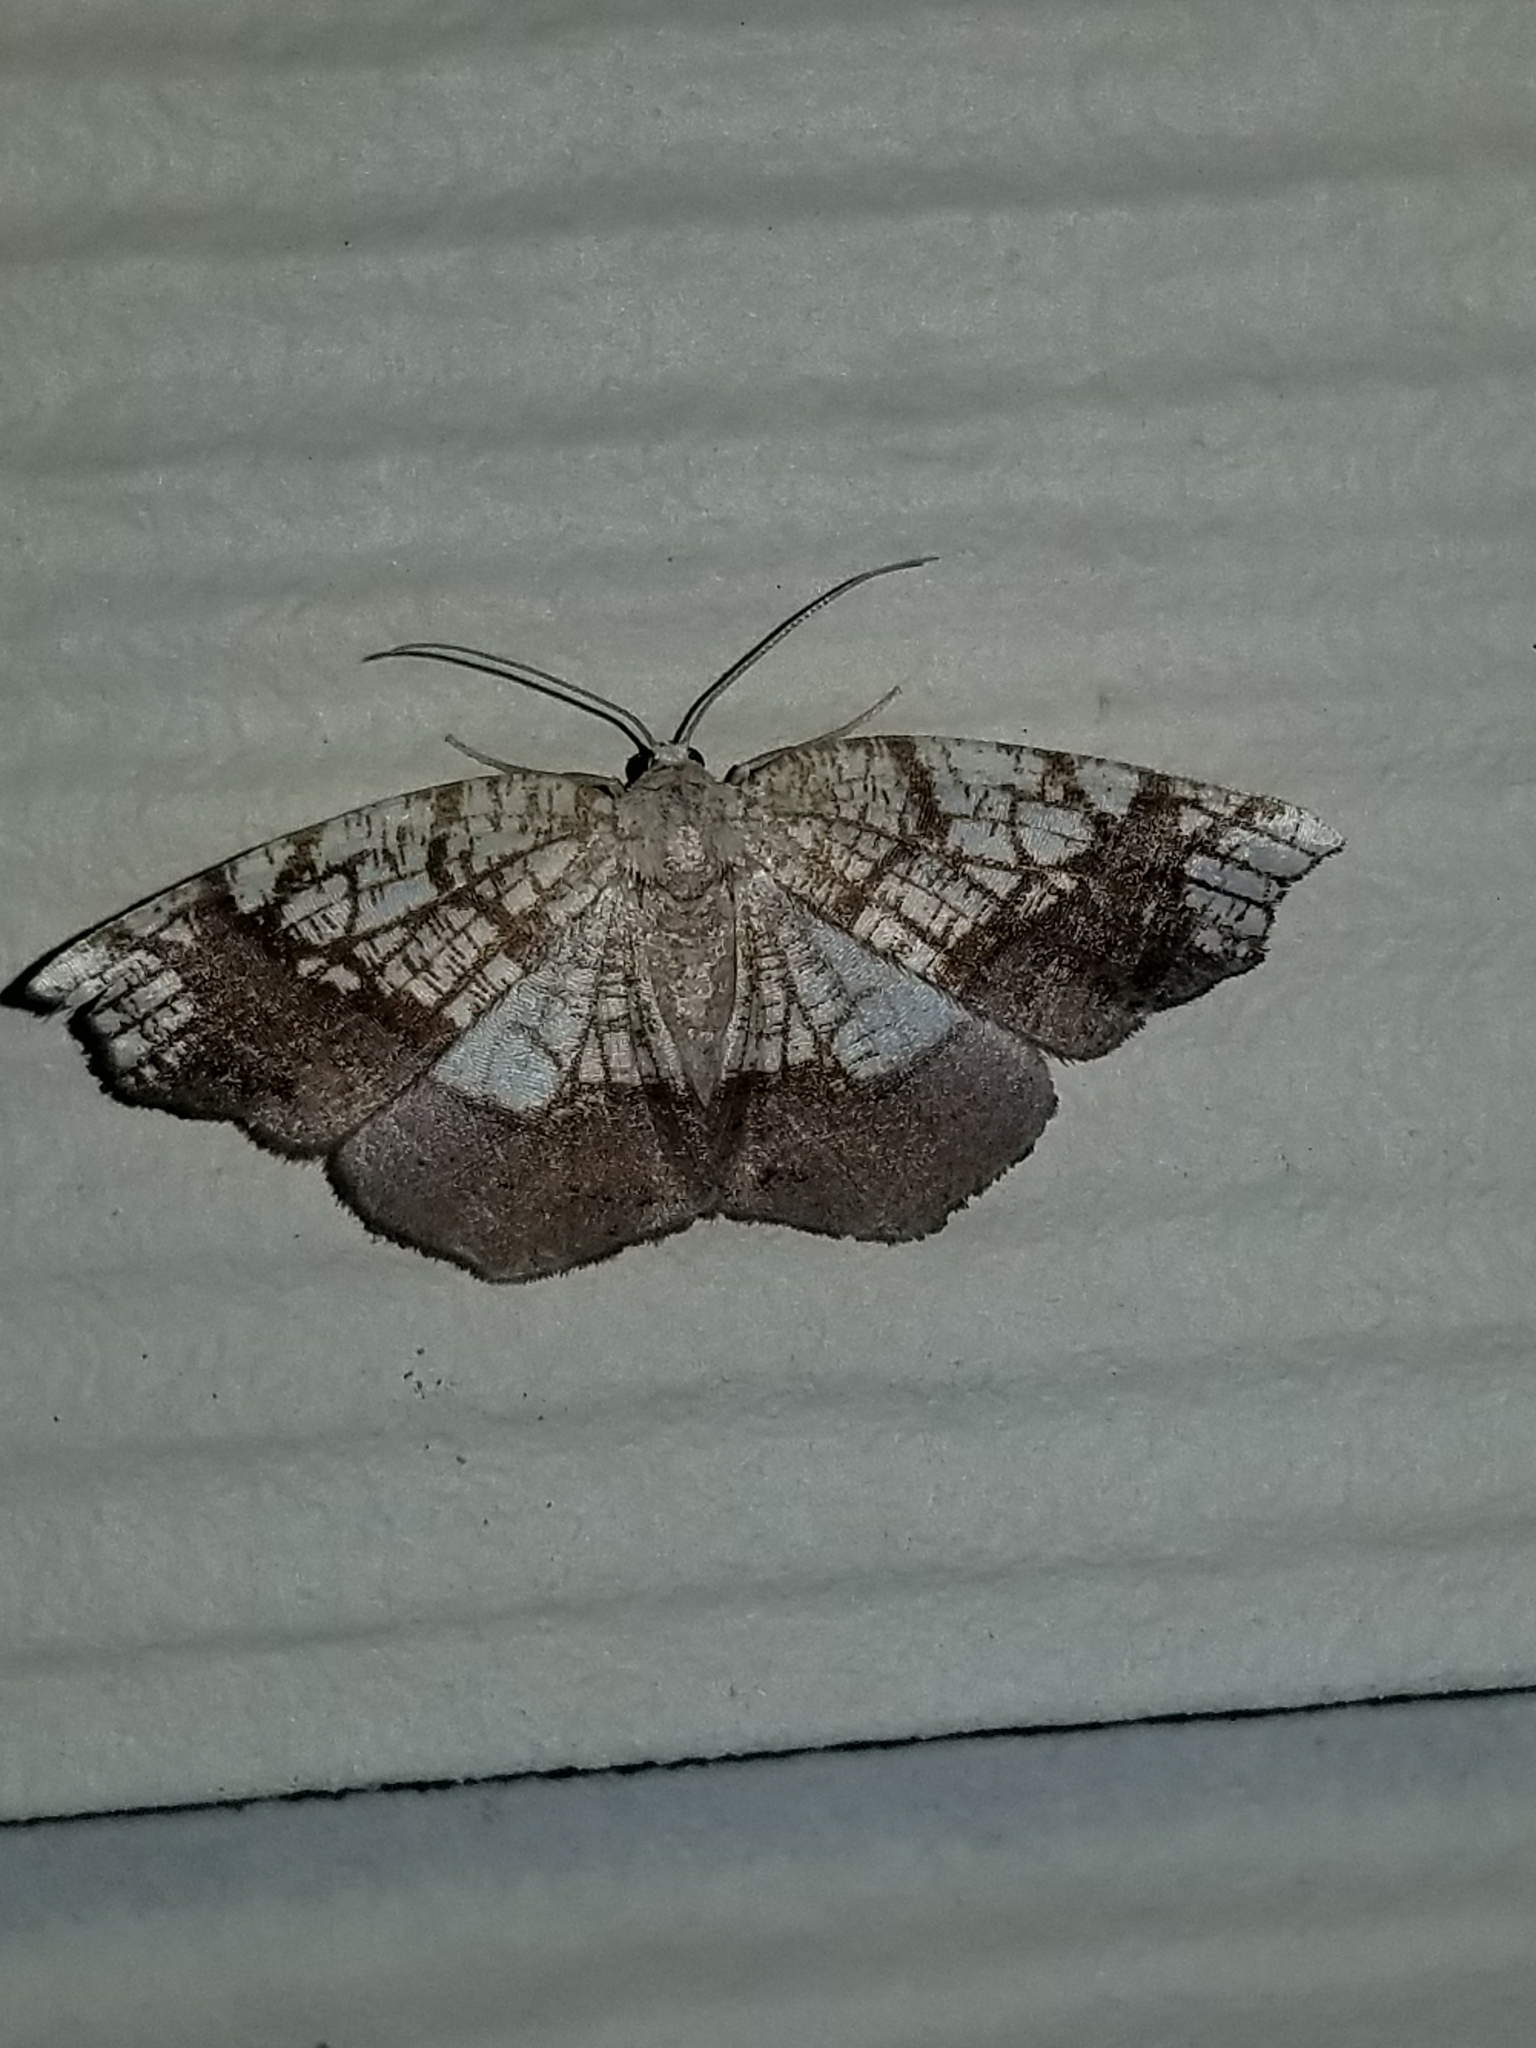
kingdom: Animalia
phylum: Arthropoda
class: Insecta
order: Lepidoptera
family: Geometridae
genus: Nematocampa
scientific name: Nematocampa resistaria
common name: Horned spanworm moth
